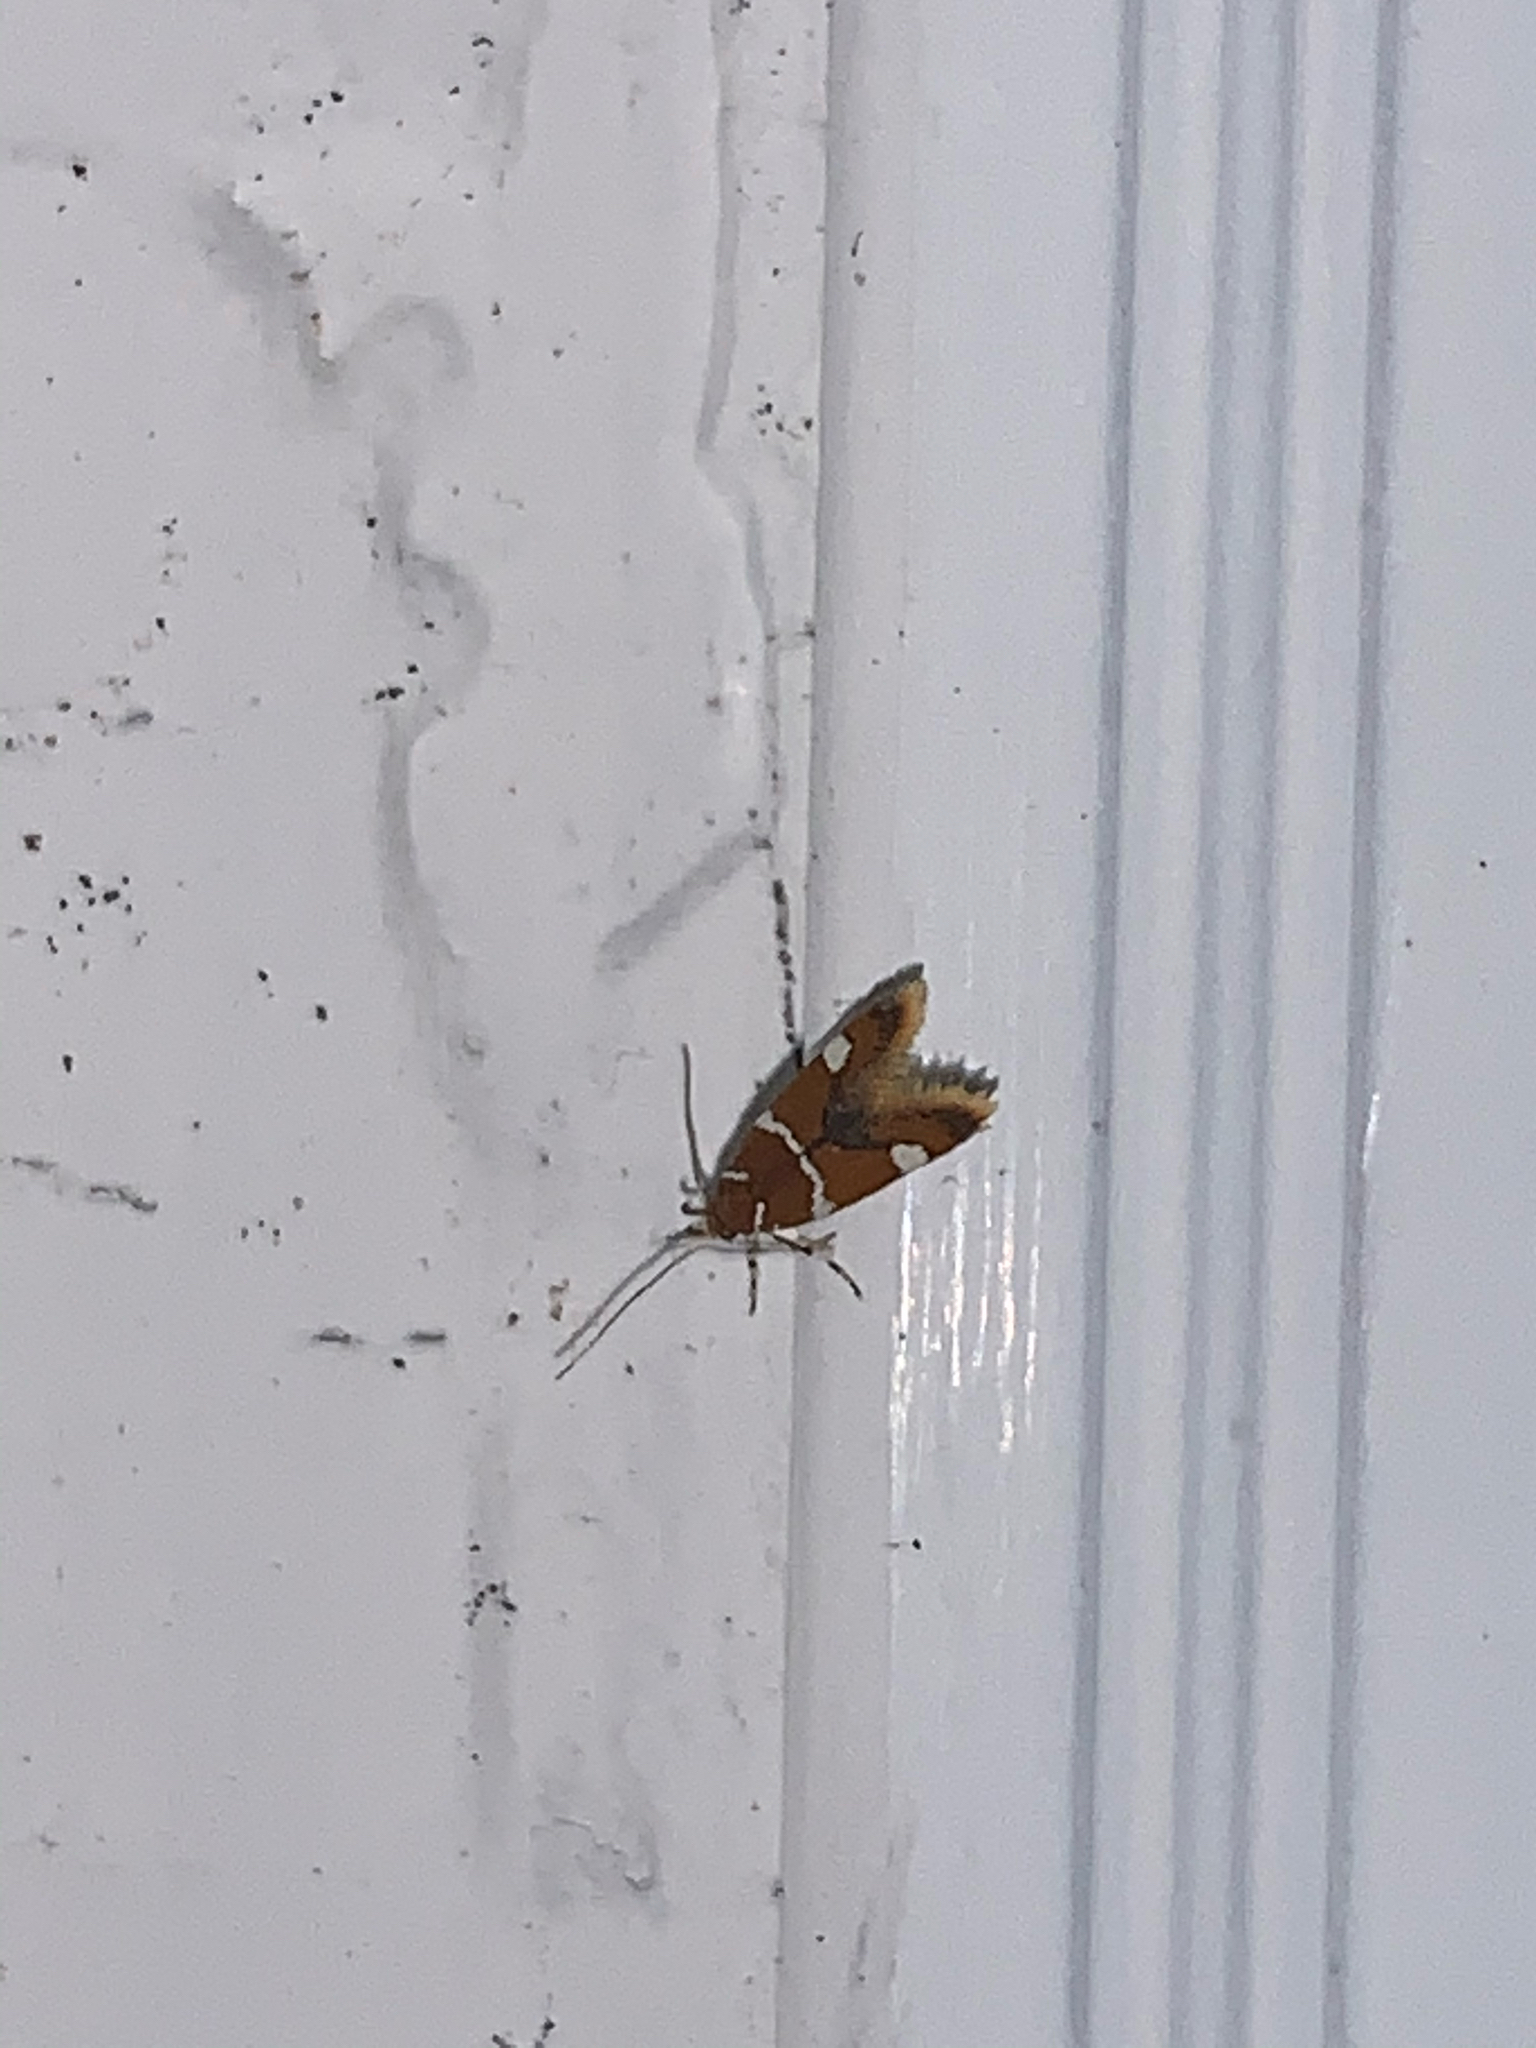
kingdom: Animalia
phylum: Arthropoda
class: Insecta
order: Lepidoptera
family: Oecophoridae
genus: Promalactis
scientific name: Promalactis suzukiella
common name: Moth
